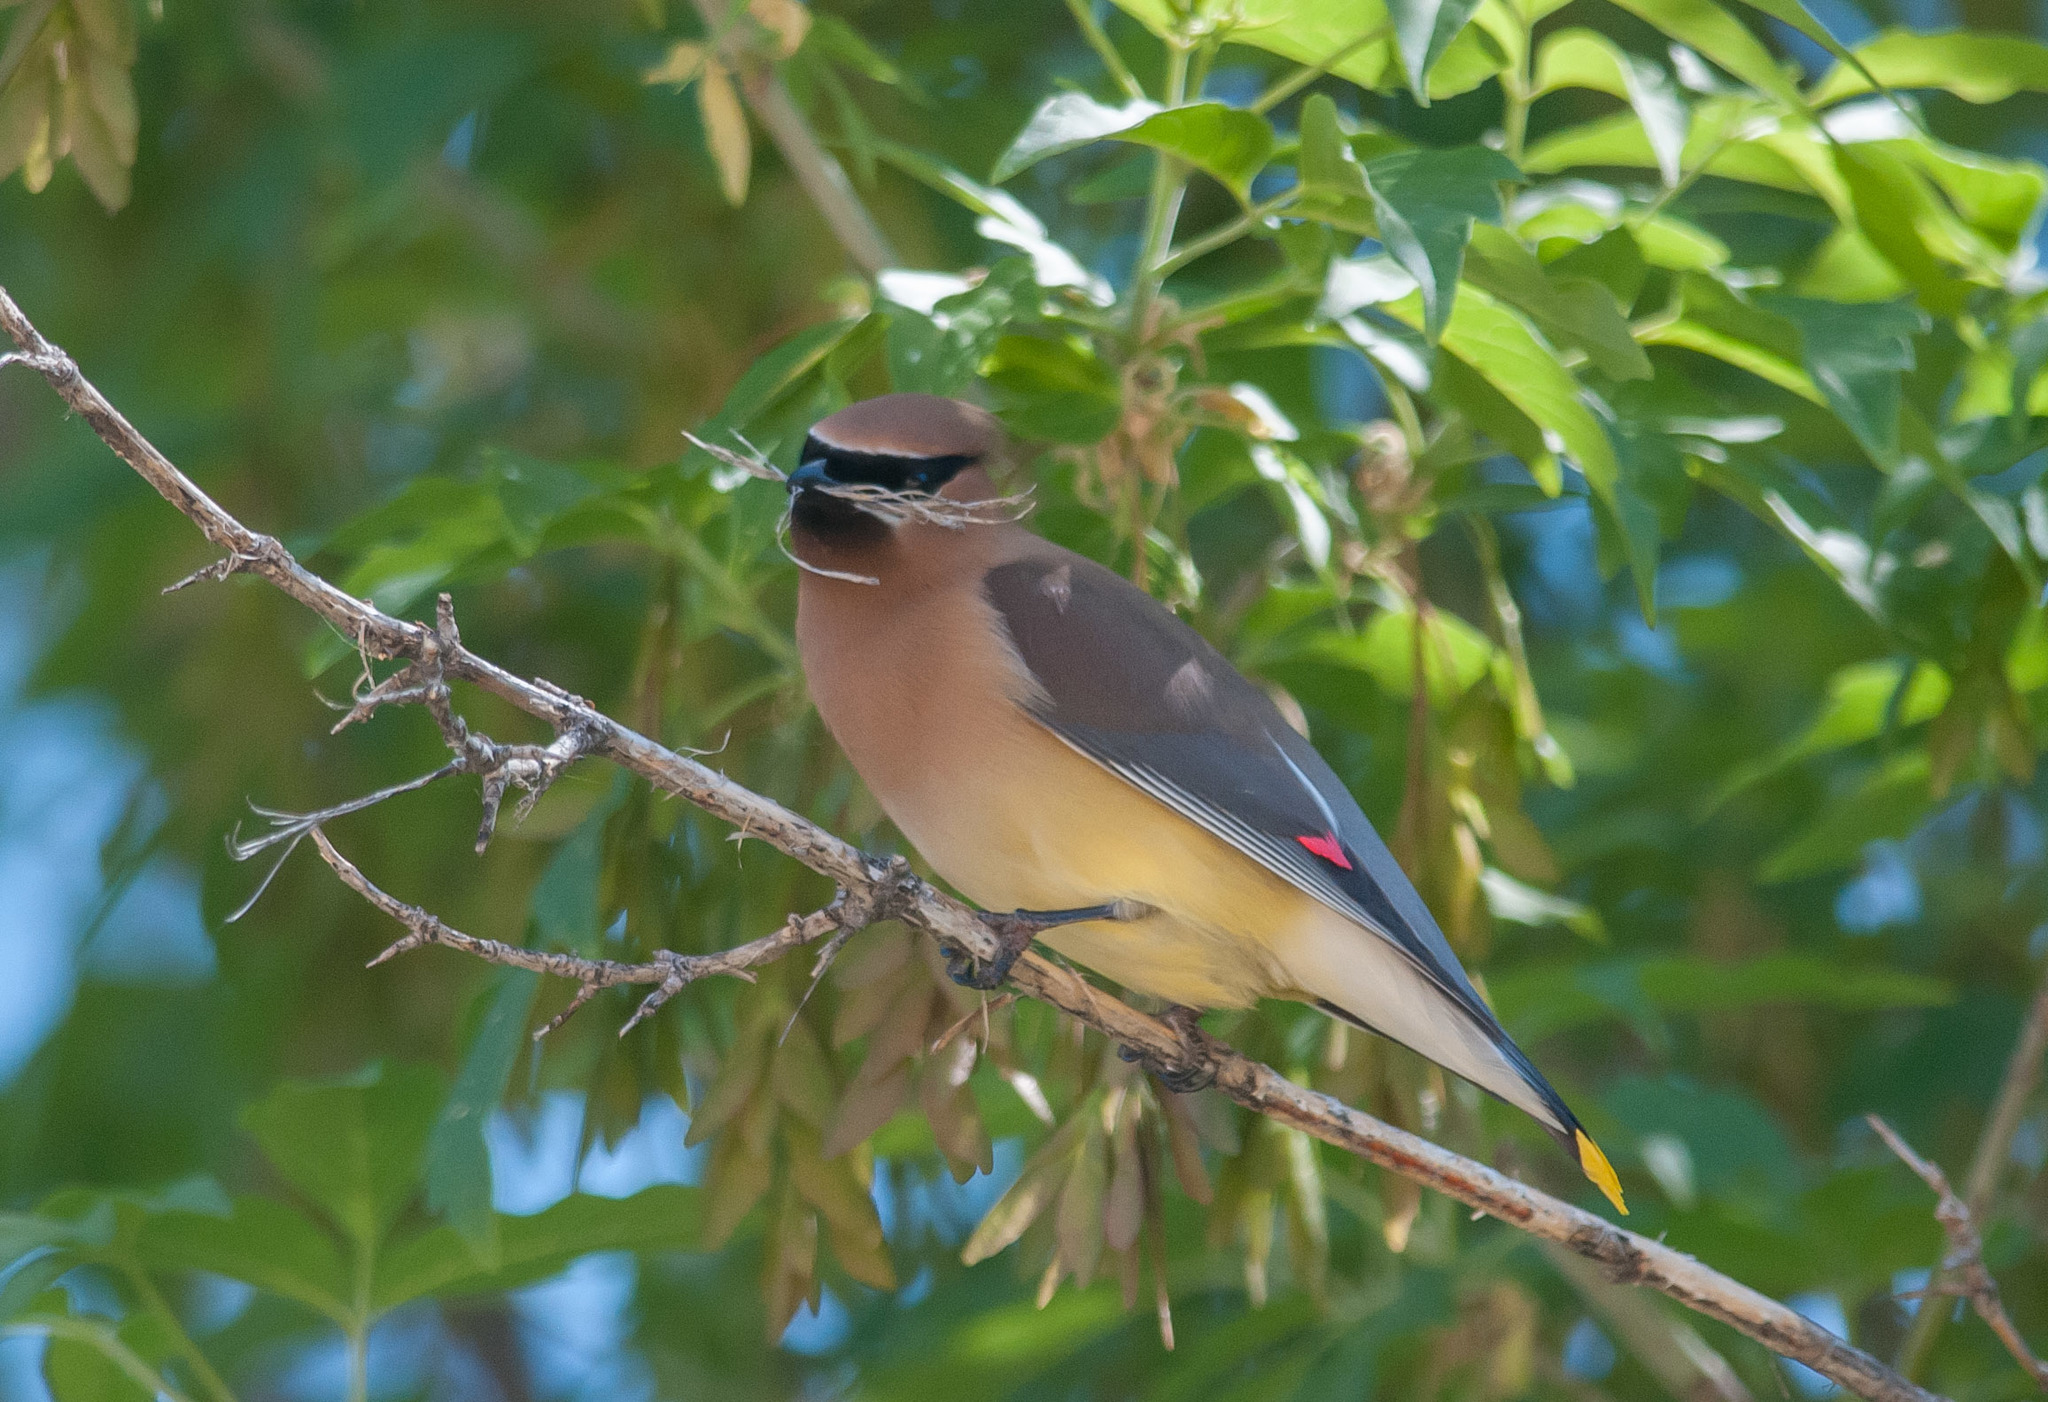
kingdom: Animalia
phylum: Chordata
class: Aves
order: Passeriformes
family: Bombycillidae
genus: Bombycilla
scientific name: Bombycilla cedrorum
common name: Cedar waxwing
